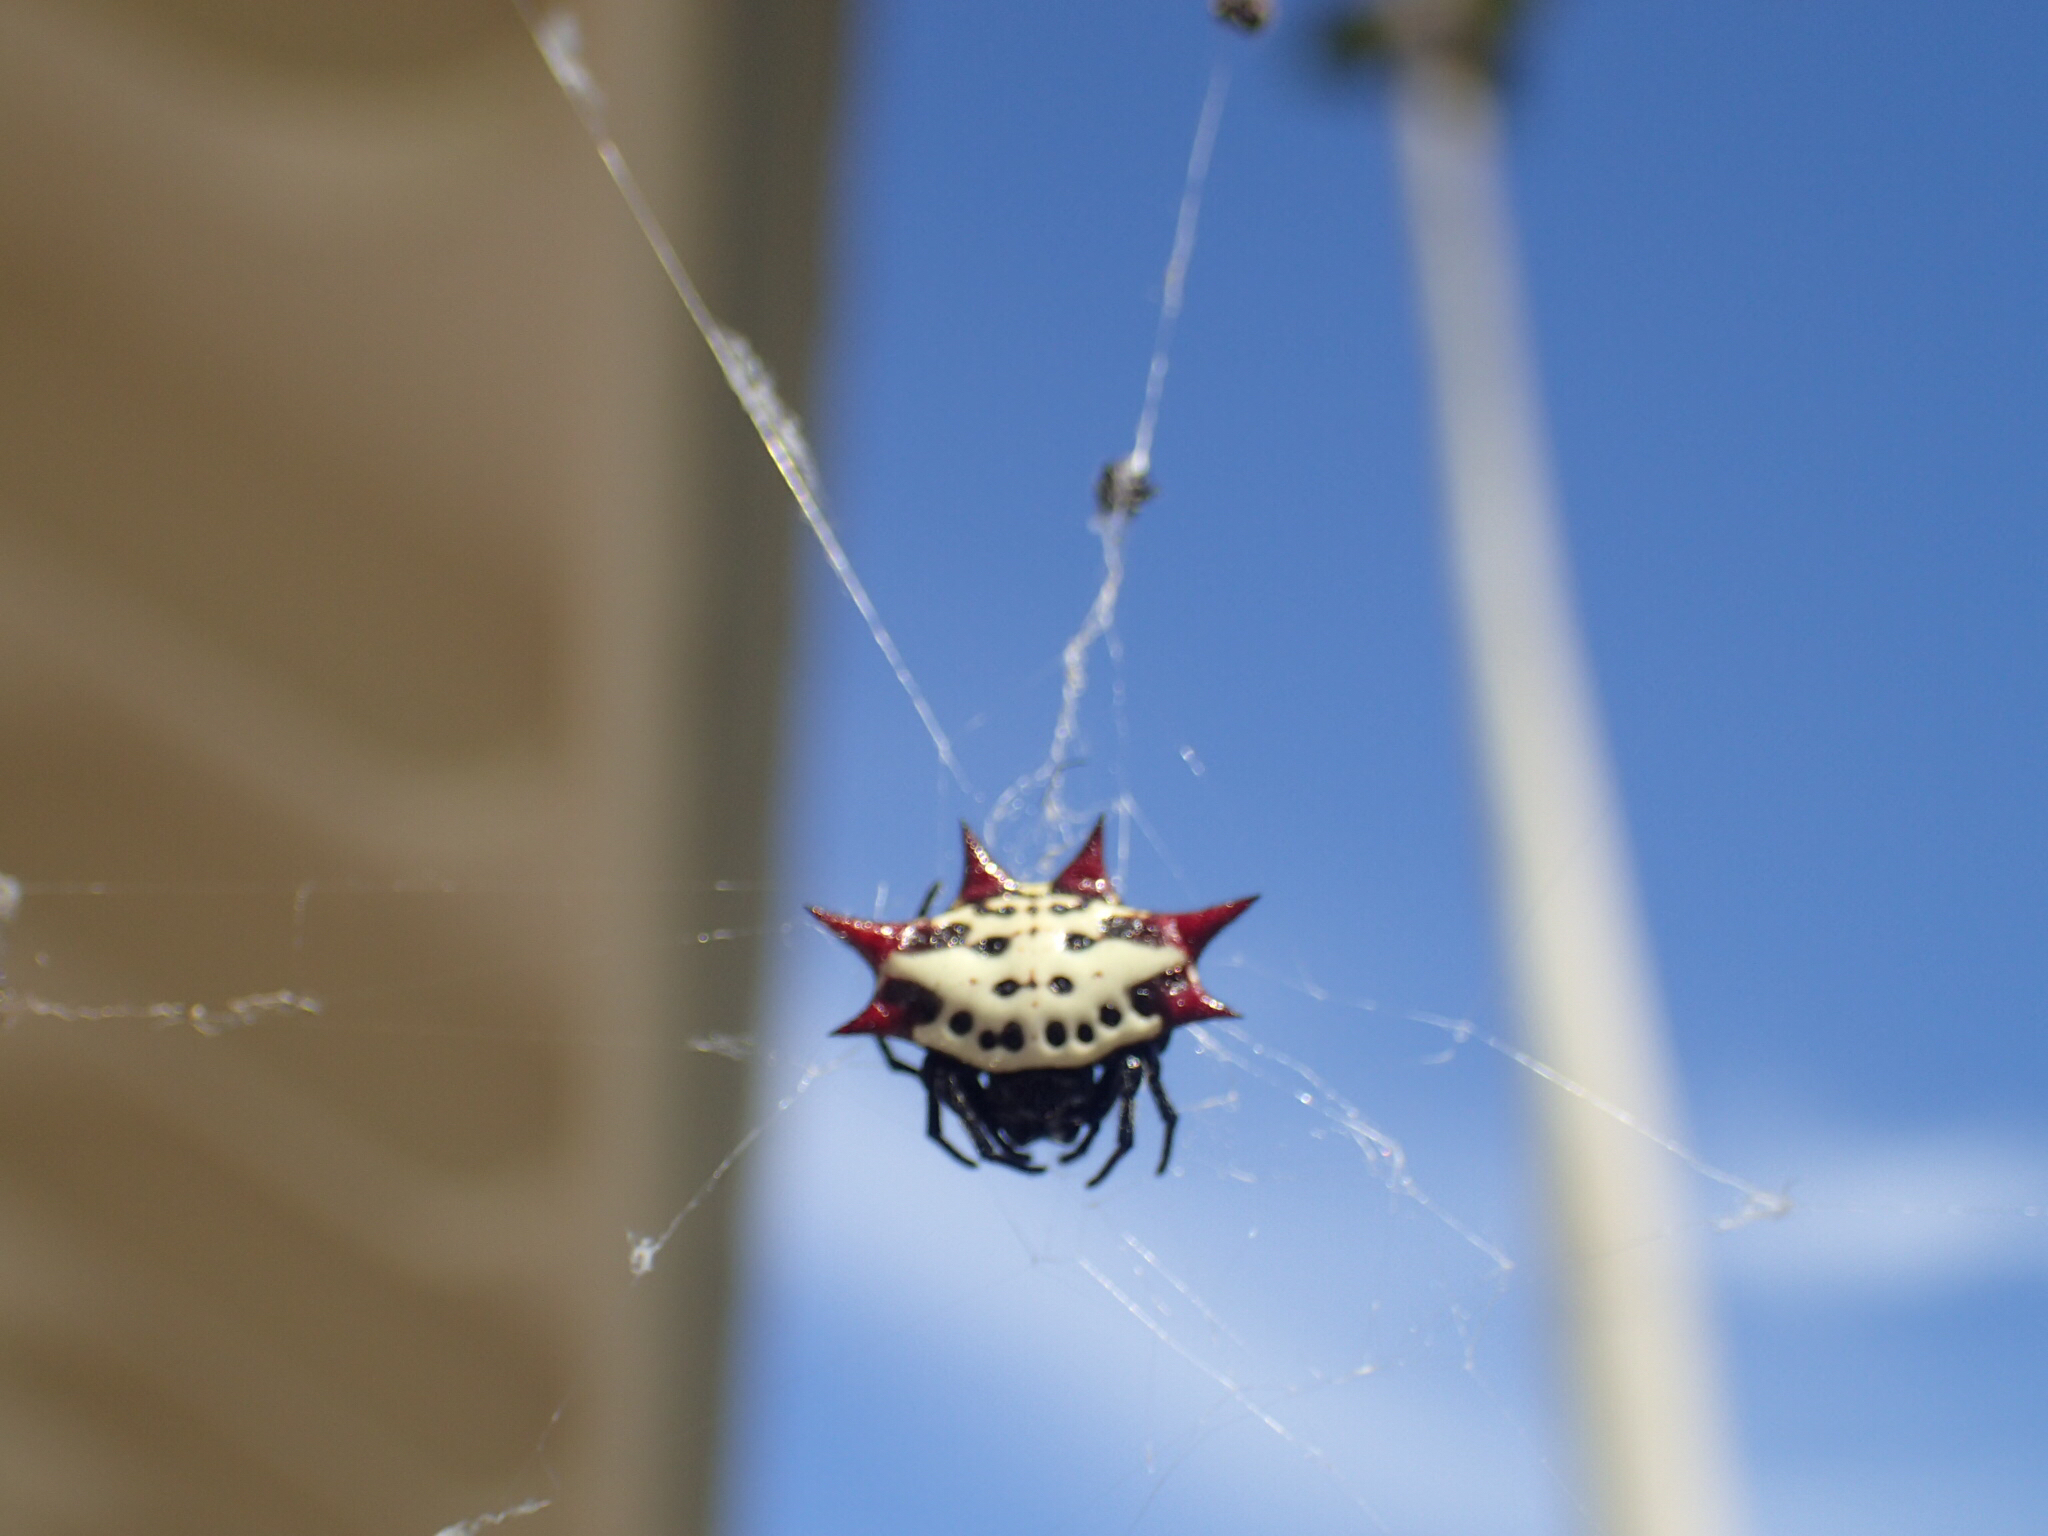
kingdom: Animalia
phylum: Arthropoda
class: Arachnida
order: Araneae
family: Araneidae
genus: Gasteracantha
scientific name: Gasteracantha cancriformis
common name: Orb weavers
